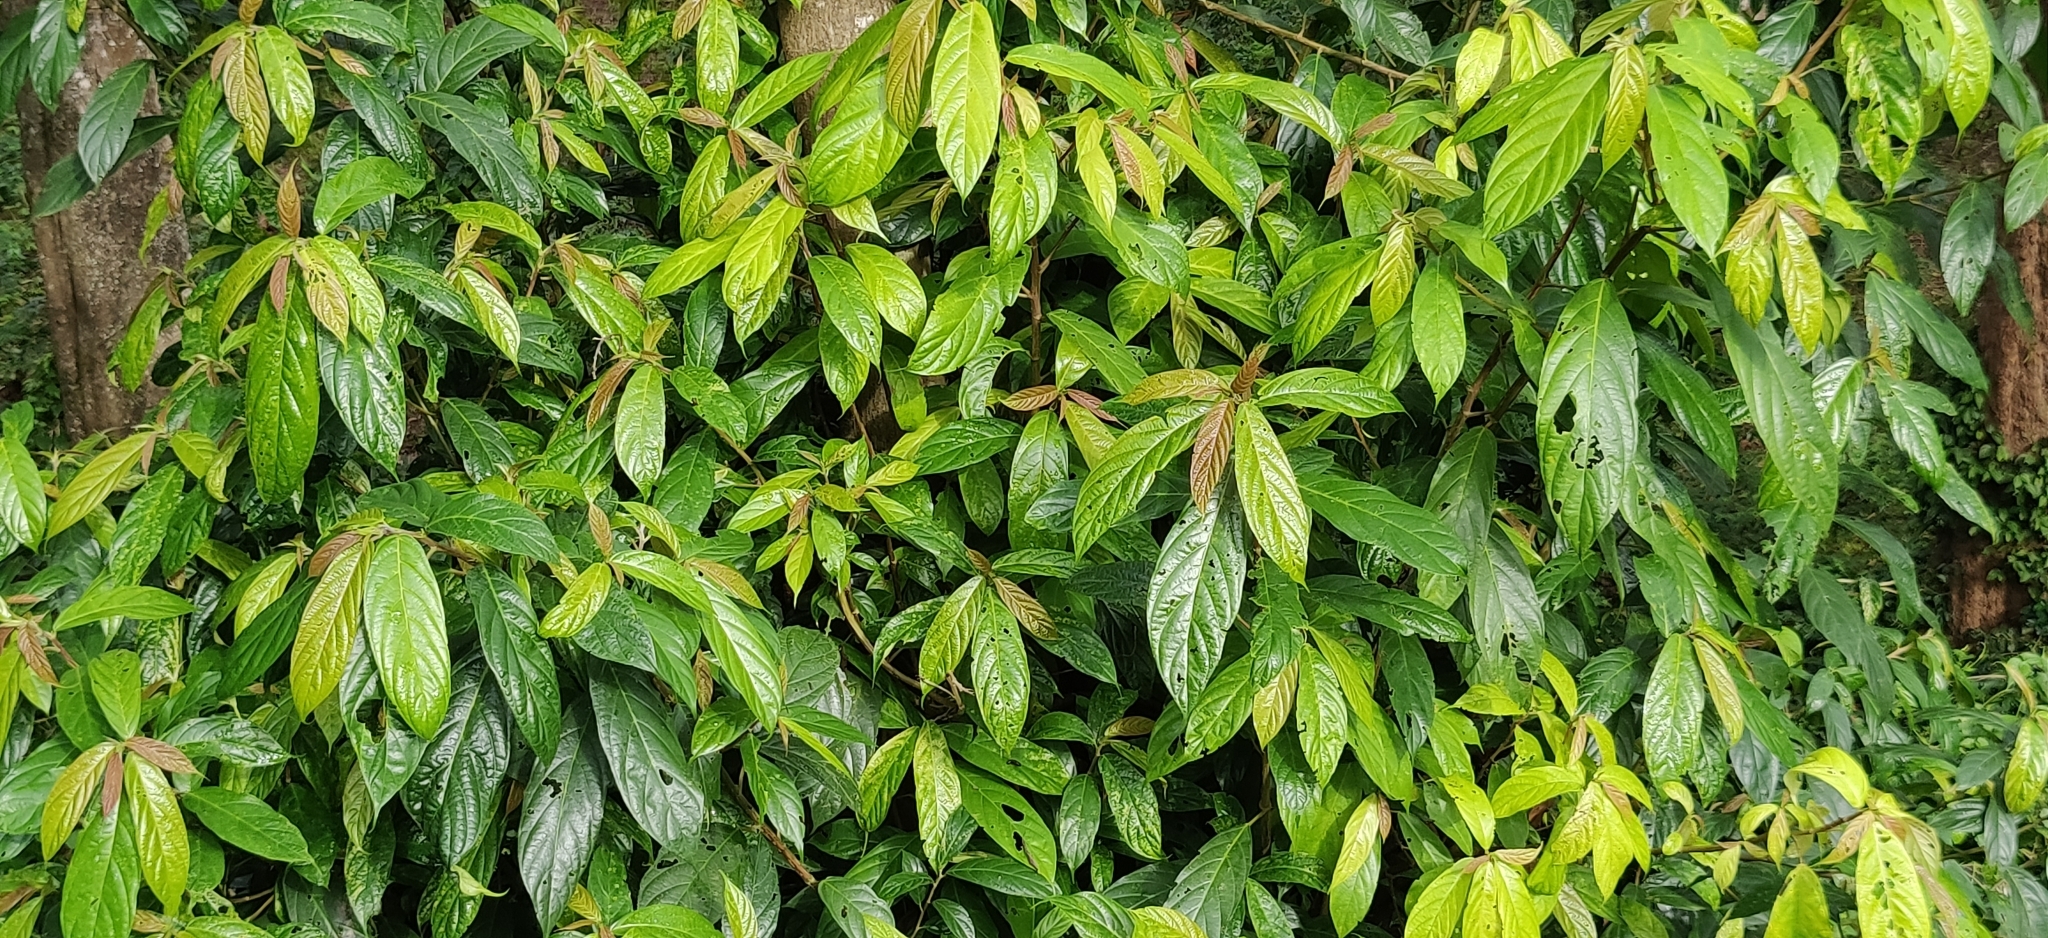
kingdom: Plantae
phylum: Tracheophyta
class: Magnoliopsida
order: Rosales
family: Urticaceae
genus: Oreocnide
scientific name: Oreocnide integrifolia
